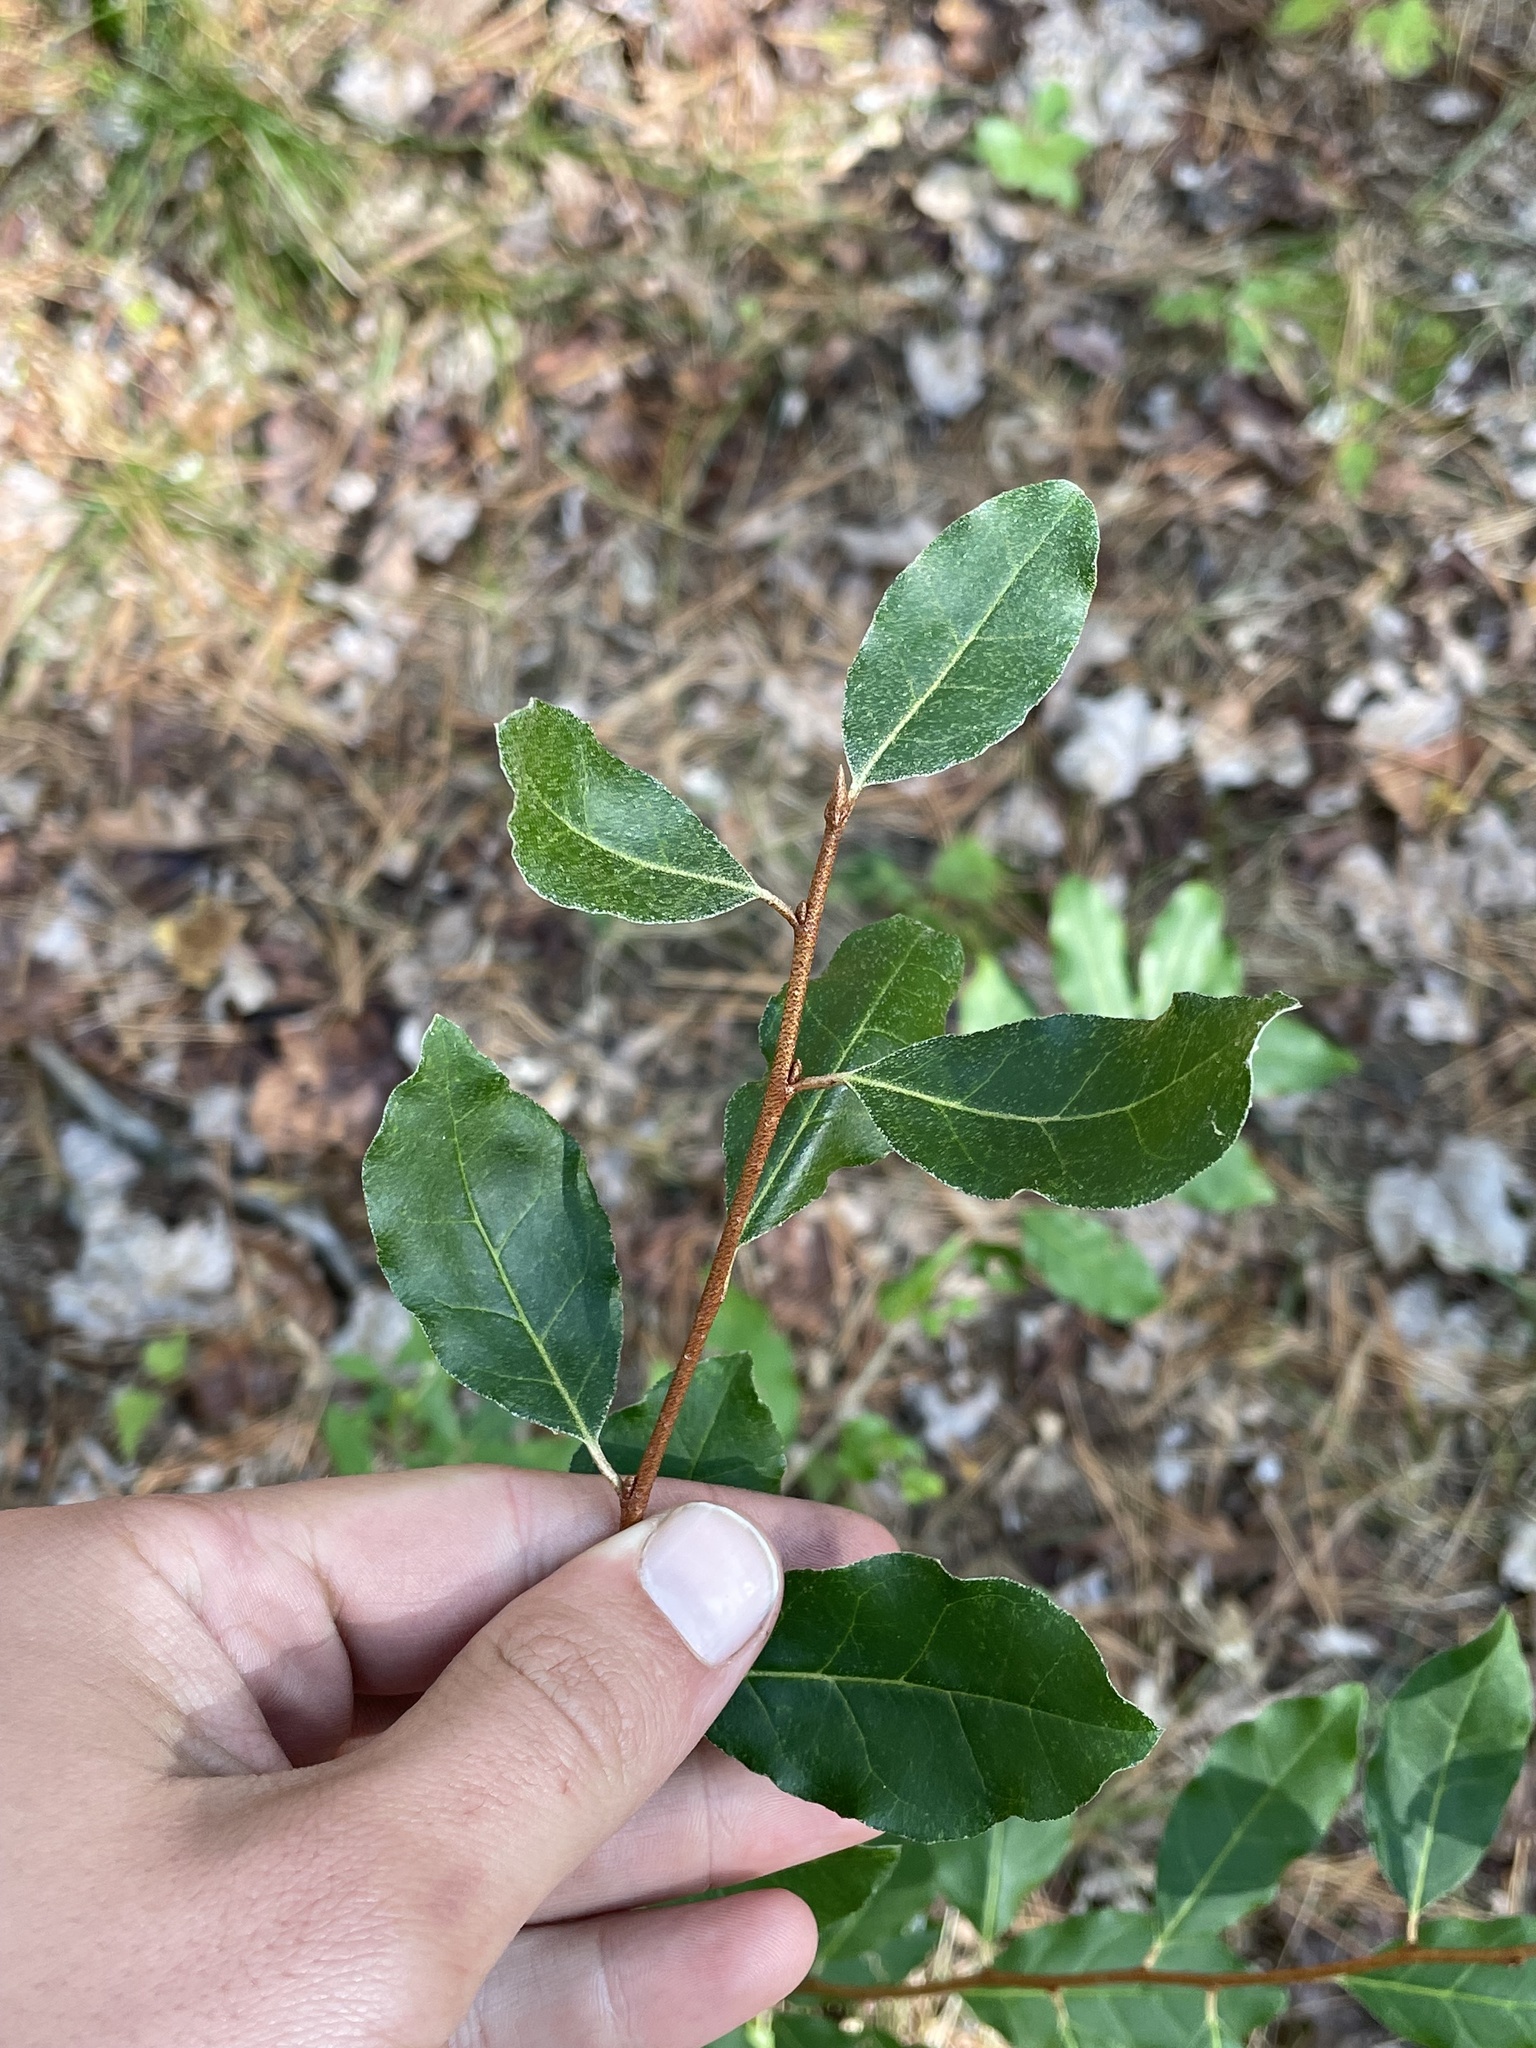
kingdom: Plantae
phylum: Tracheophyta
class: Magnoliopsida
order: Rosales
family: Elaeagnaceae
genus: Elaeagnus
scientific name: Elaeagnus umbellata
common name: Autumn olive
